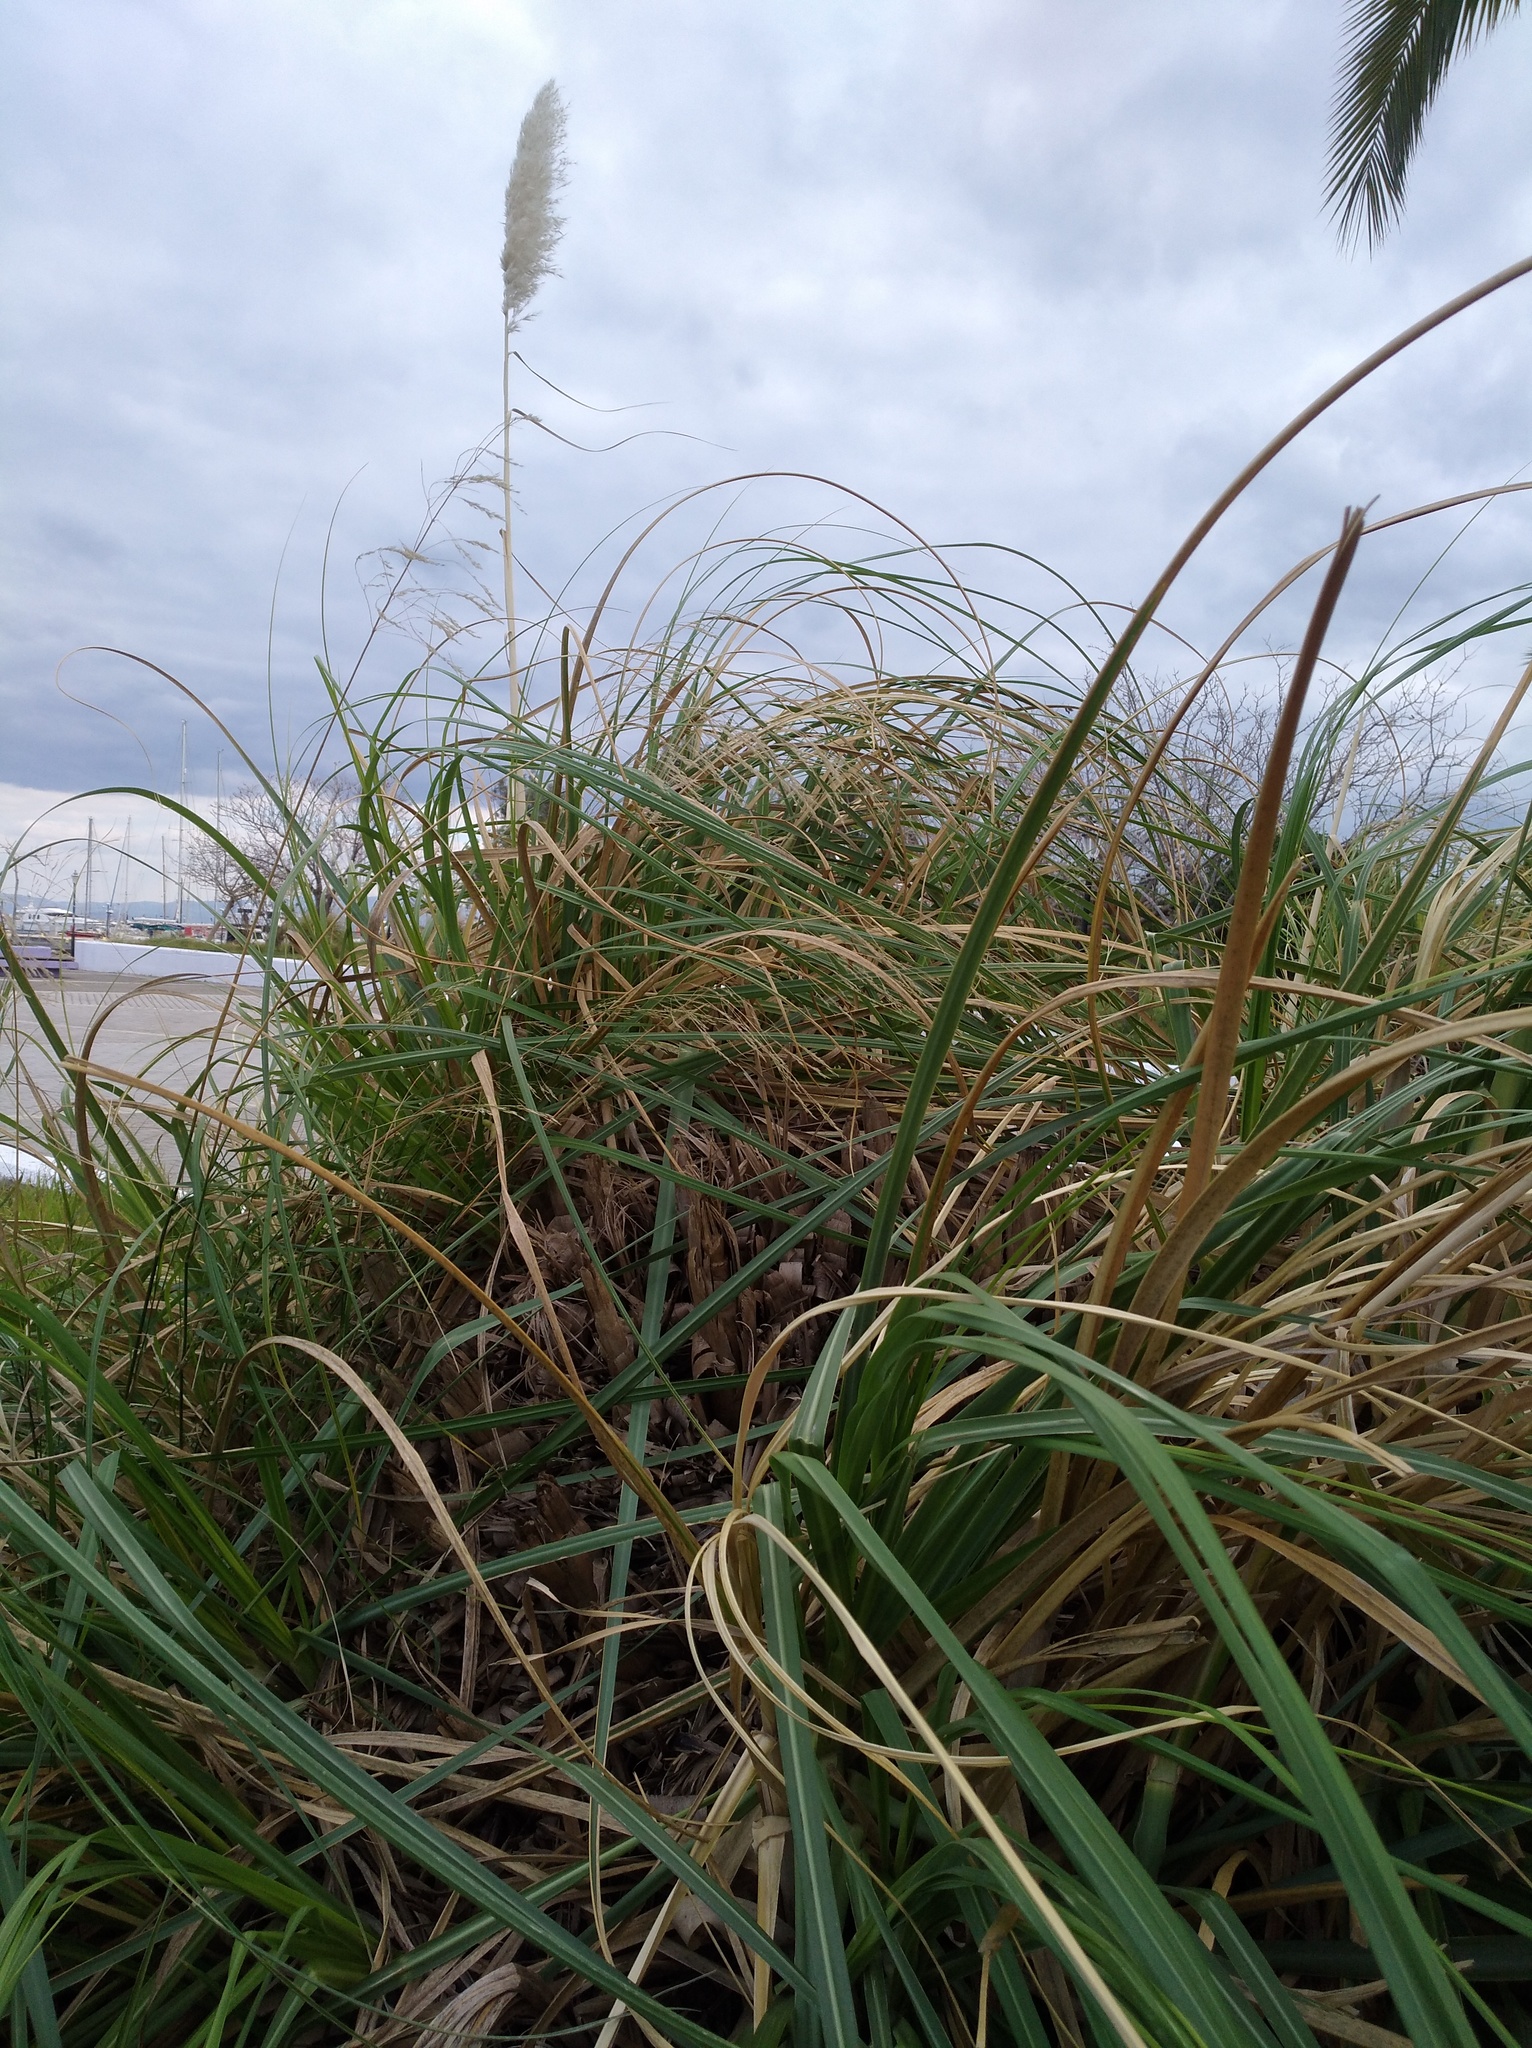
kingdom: Plantae
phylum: Tracheophyta
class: Liliopsida
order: Poales
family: Poaceae
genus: Cortaderia
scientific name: Cortaderia selloana
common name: Uruguayan pampas grass
